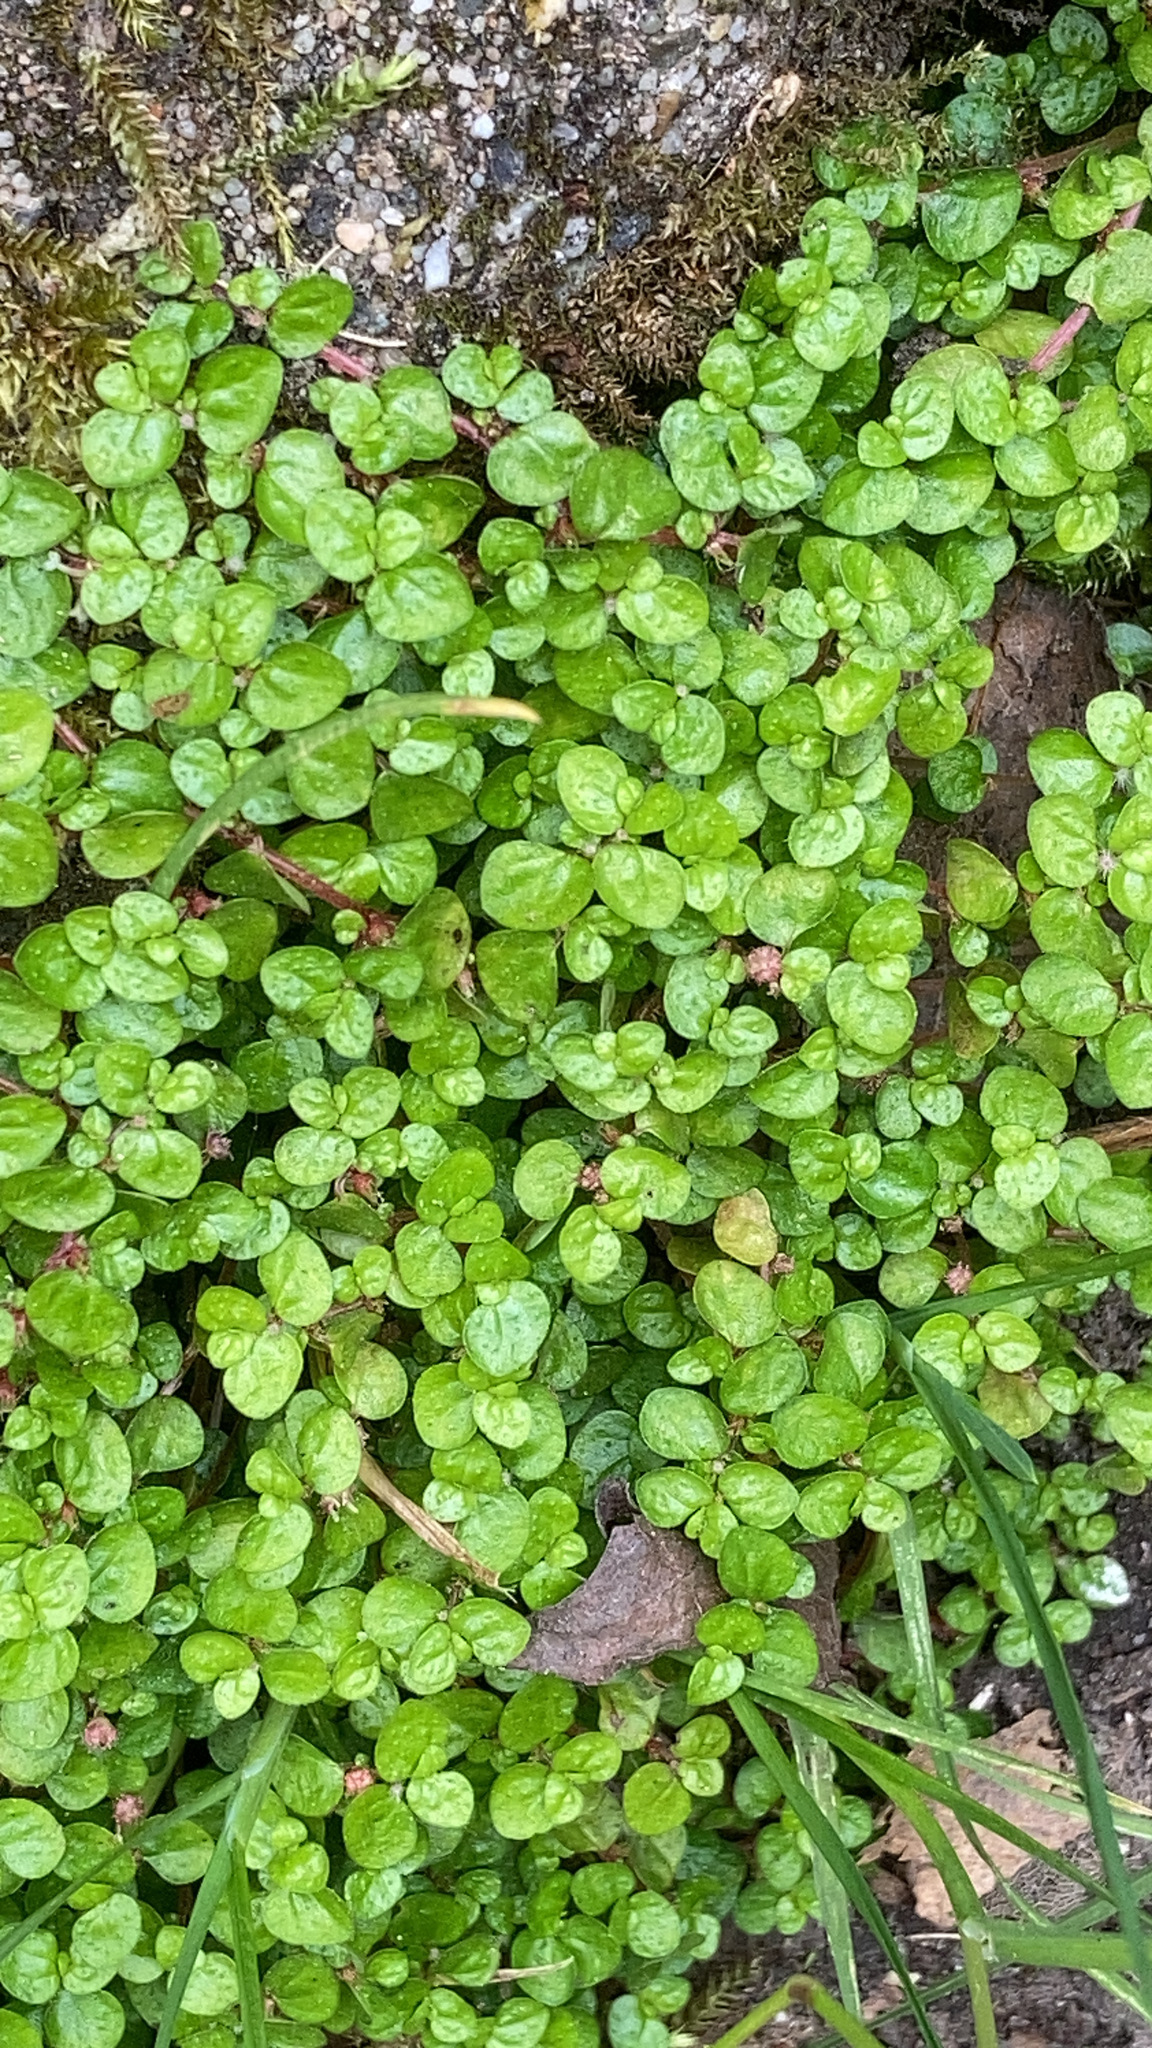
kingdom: Plantae
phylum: Tracheophyta
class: Magnoliopsida
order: Rosales
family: Urticaceae
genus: Soleirolia
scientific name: Soleirolia soleirolii
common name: Mind-your-own-business
